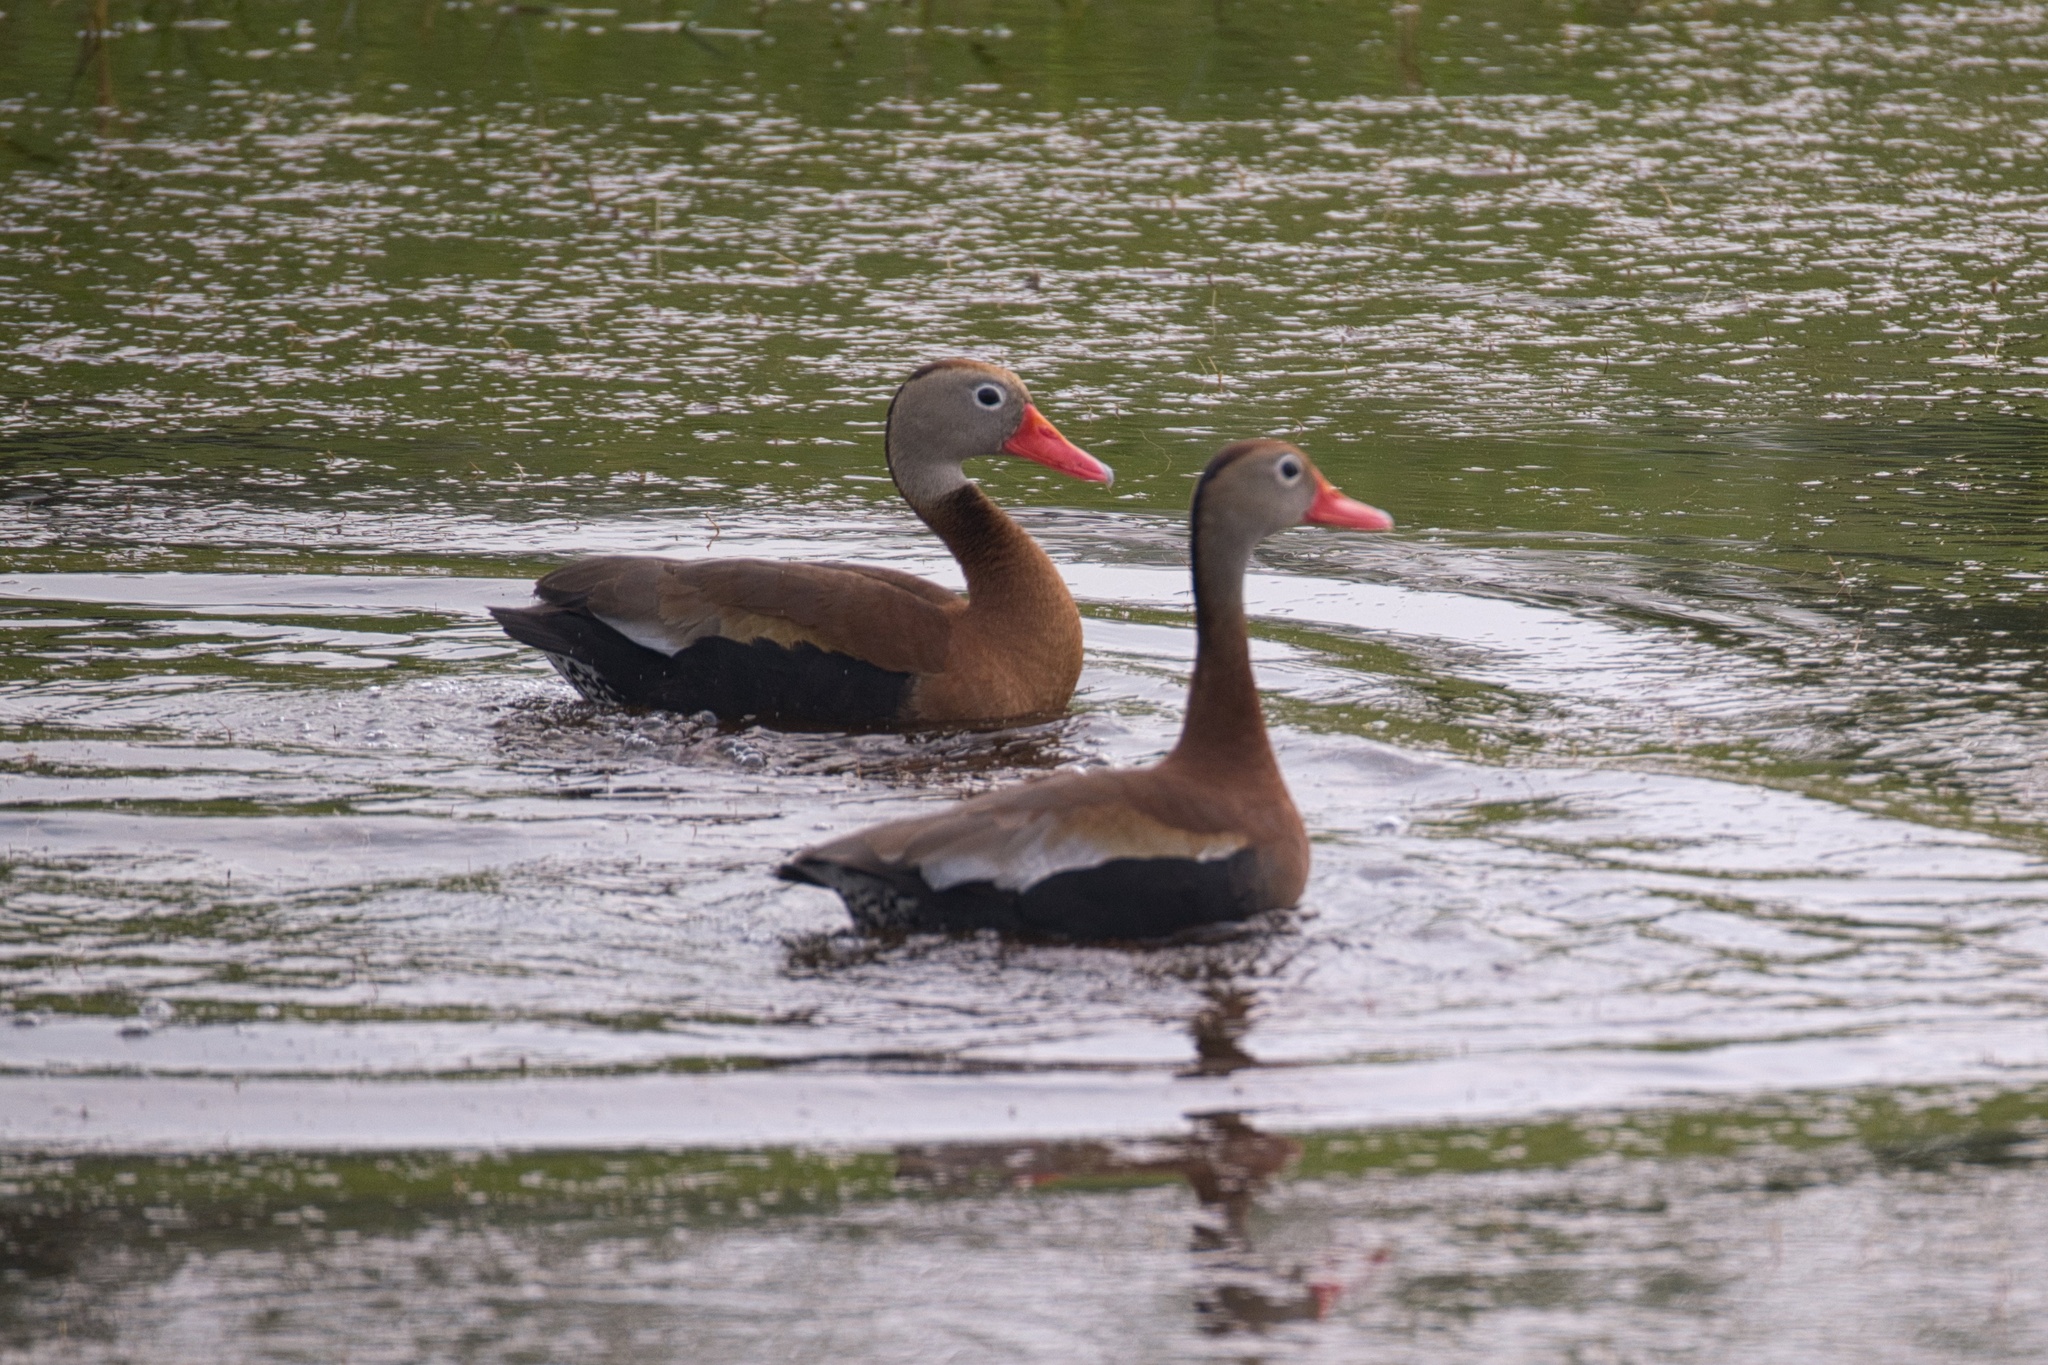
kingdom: Animalia
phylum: Chordata
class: Aves
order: Anseriformes
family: Anatidae
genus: Dendrocygna
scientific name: Dendrocygna autumnalis
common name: Black-bellied whistling duck
